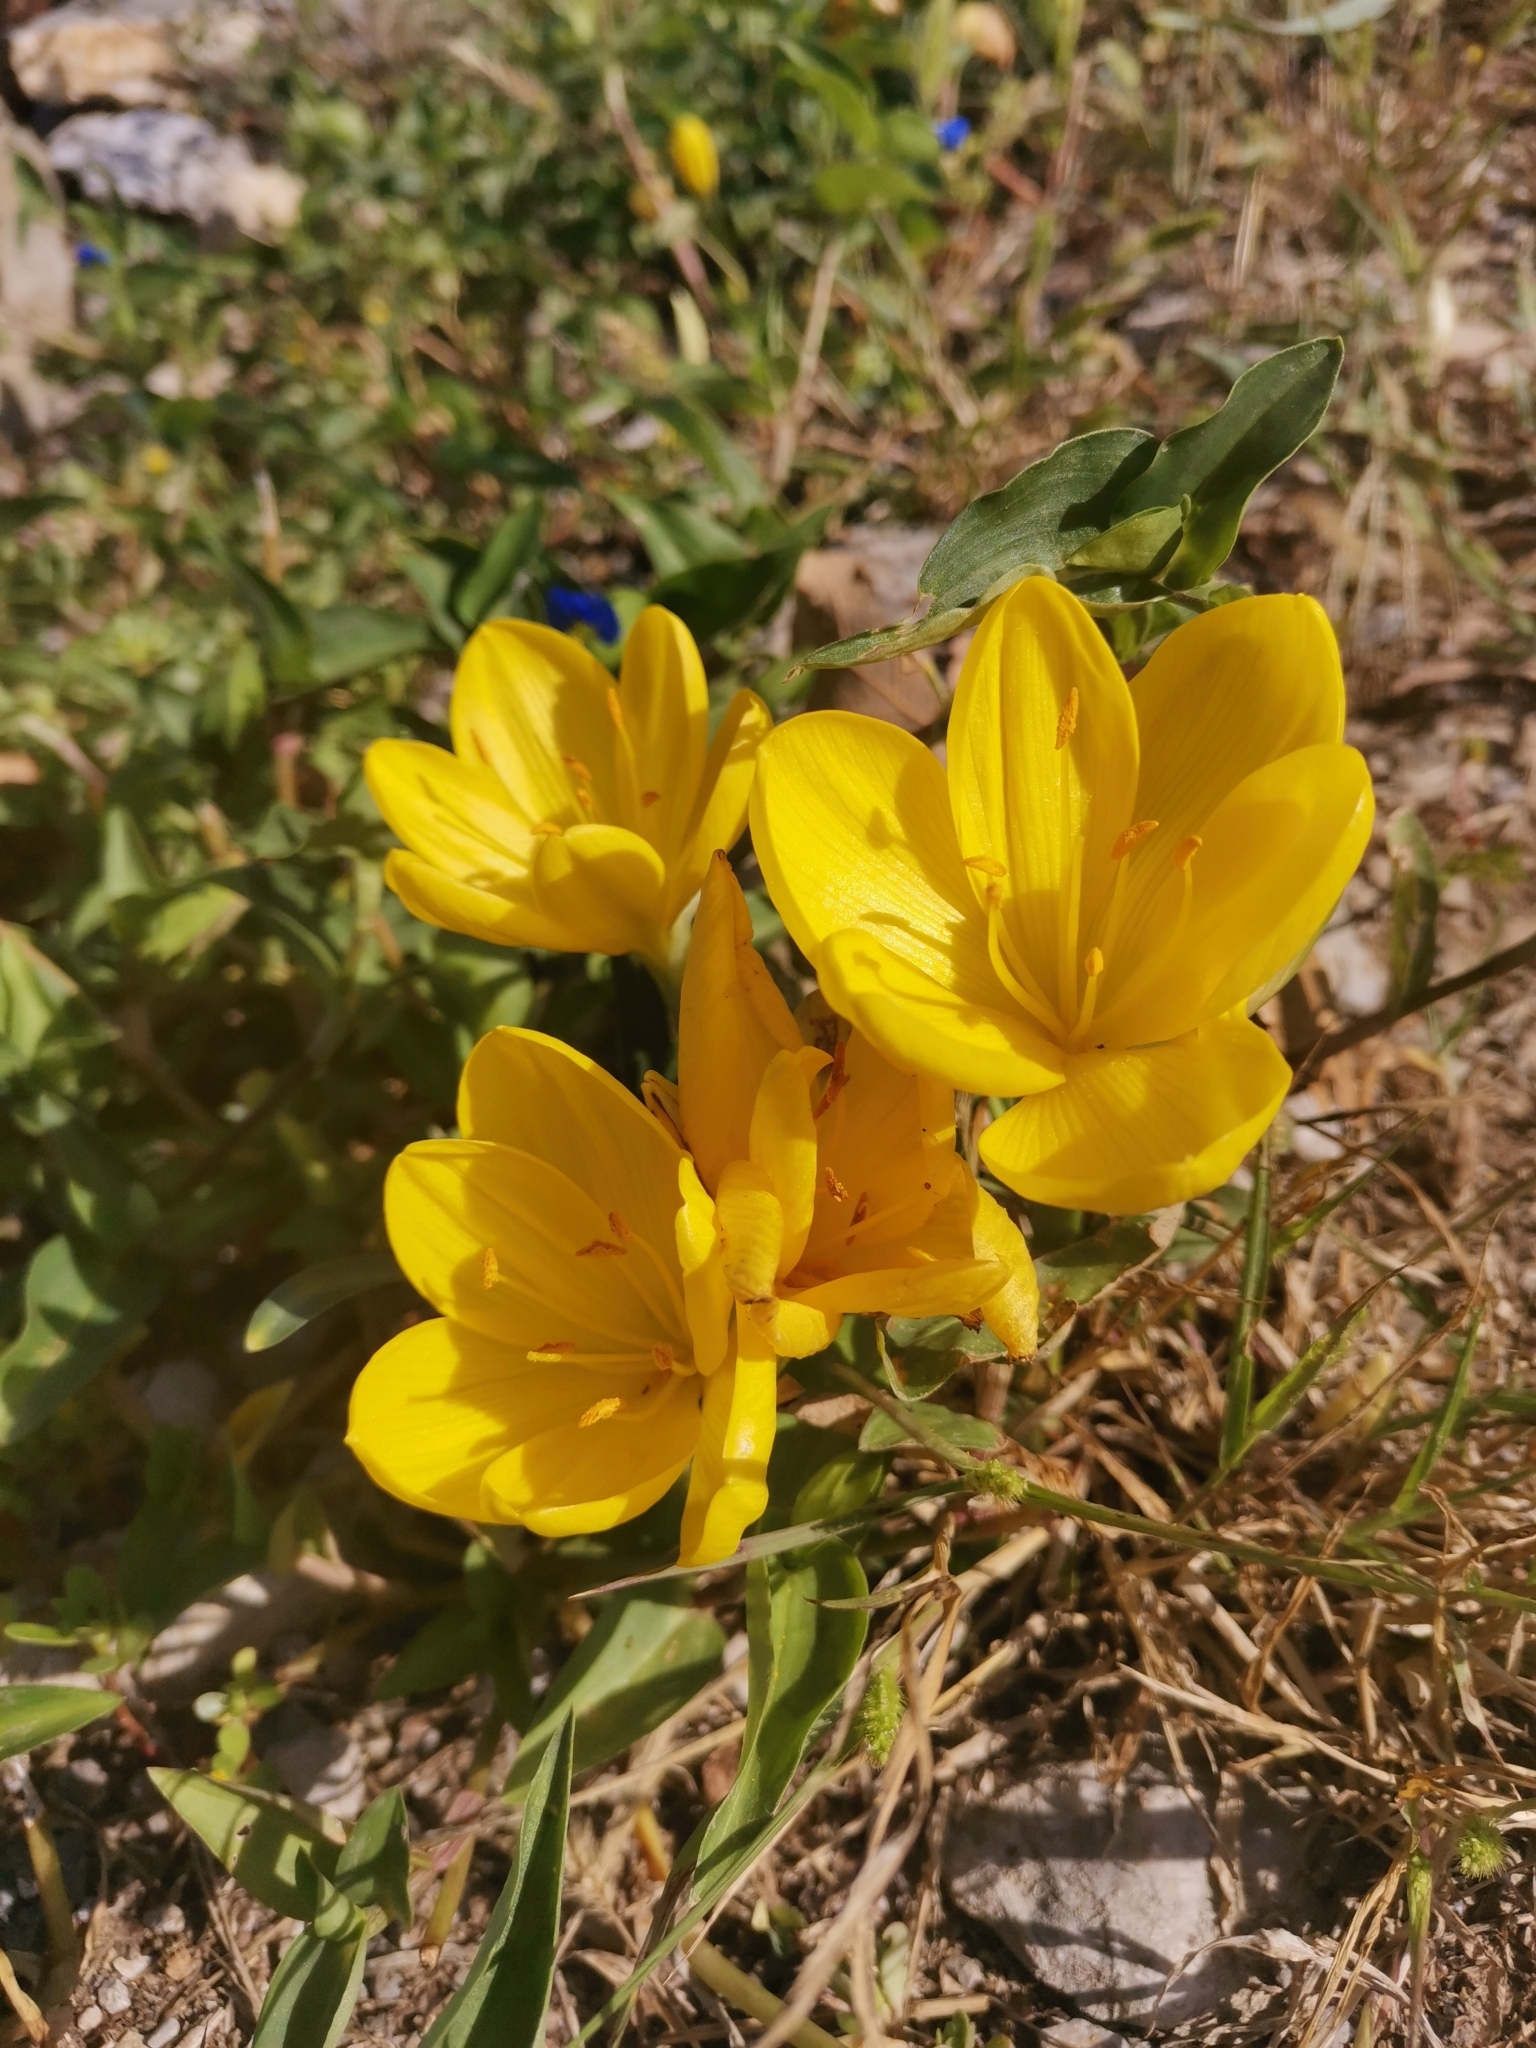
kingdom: Plantae
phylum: Tracheophyta
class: Liliopsida
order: Asparagales
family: Amaryllidaceae
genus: Sternbergia
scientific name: Sternbergia lutea
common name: Winter daffodil
